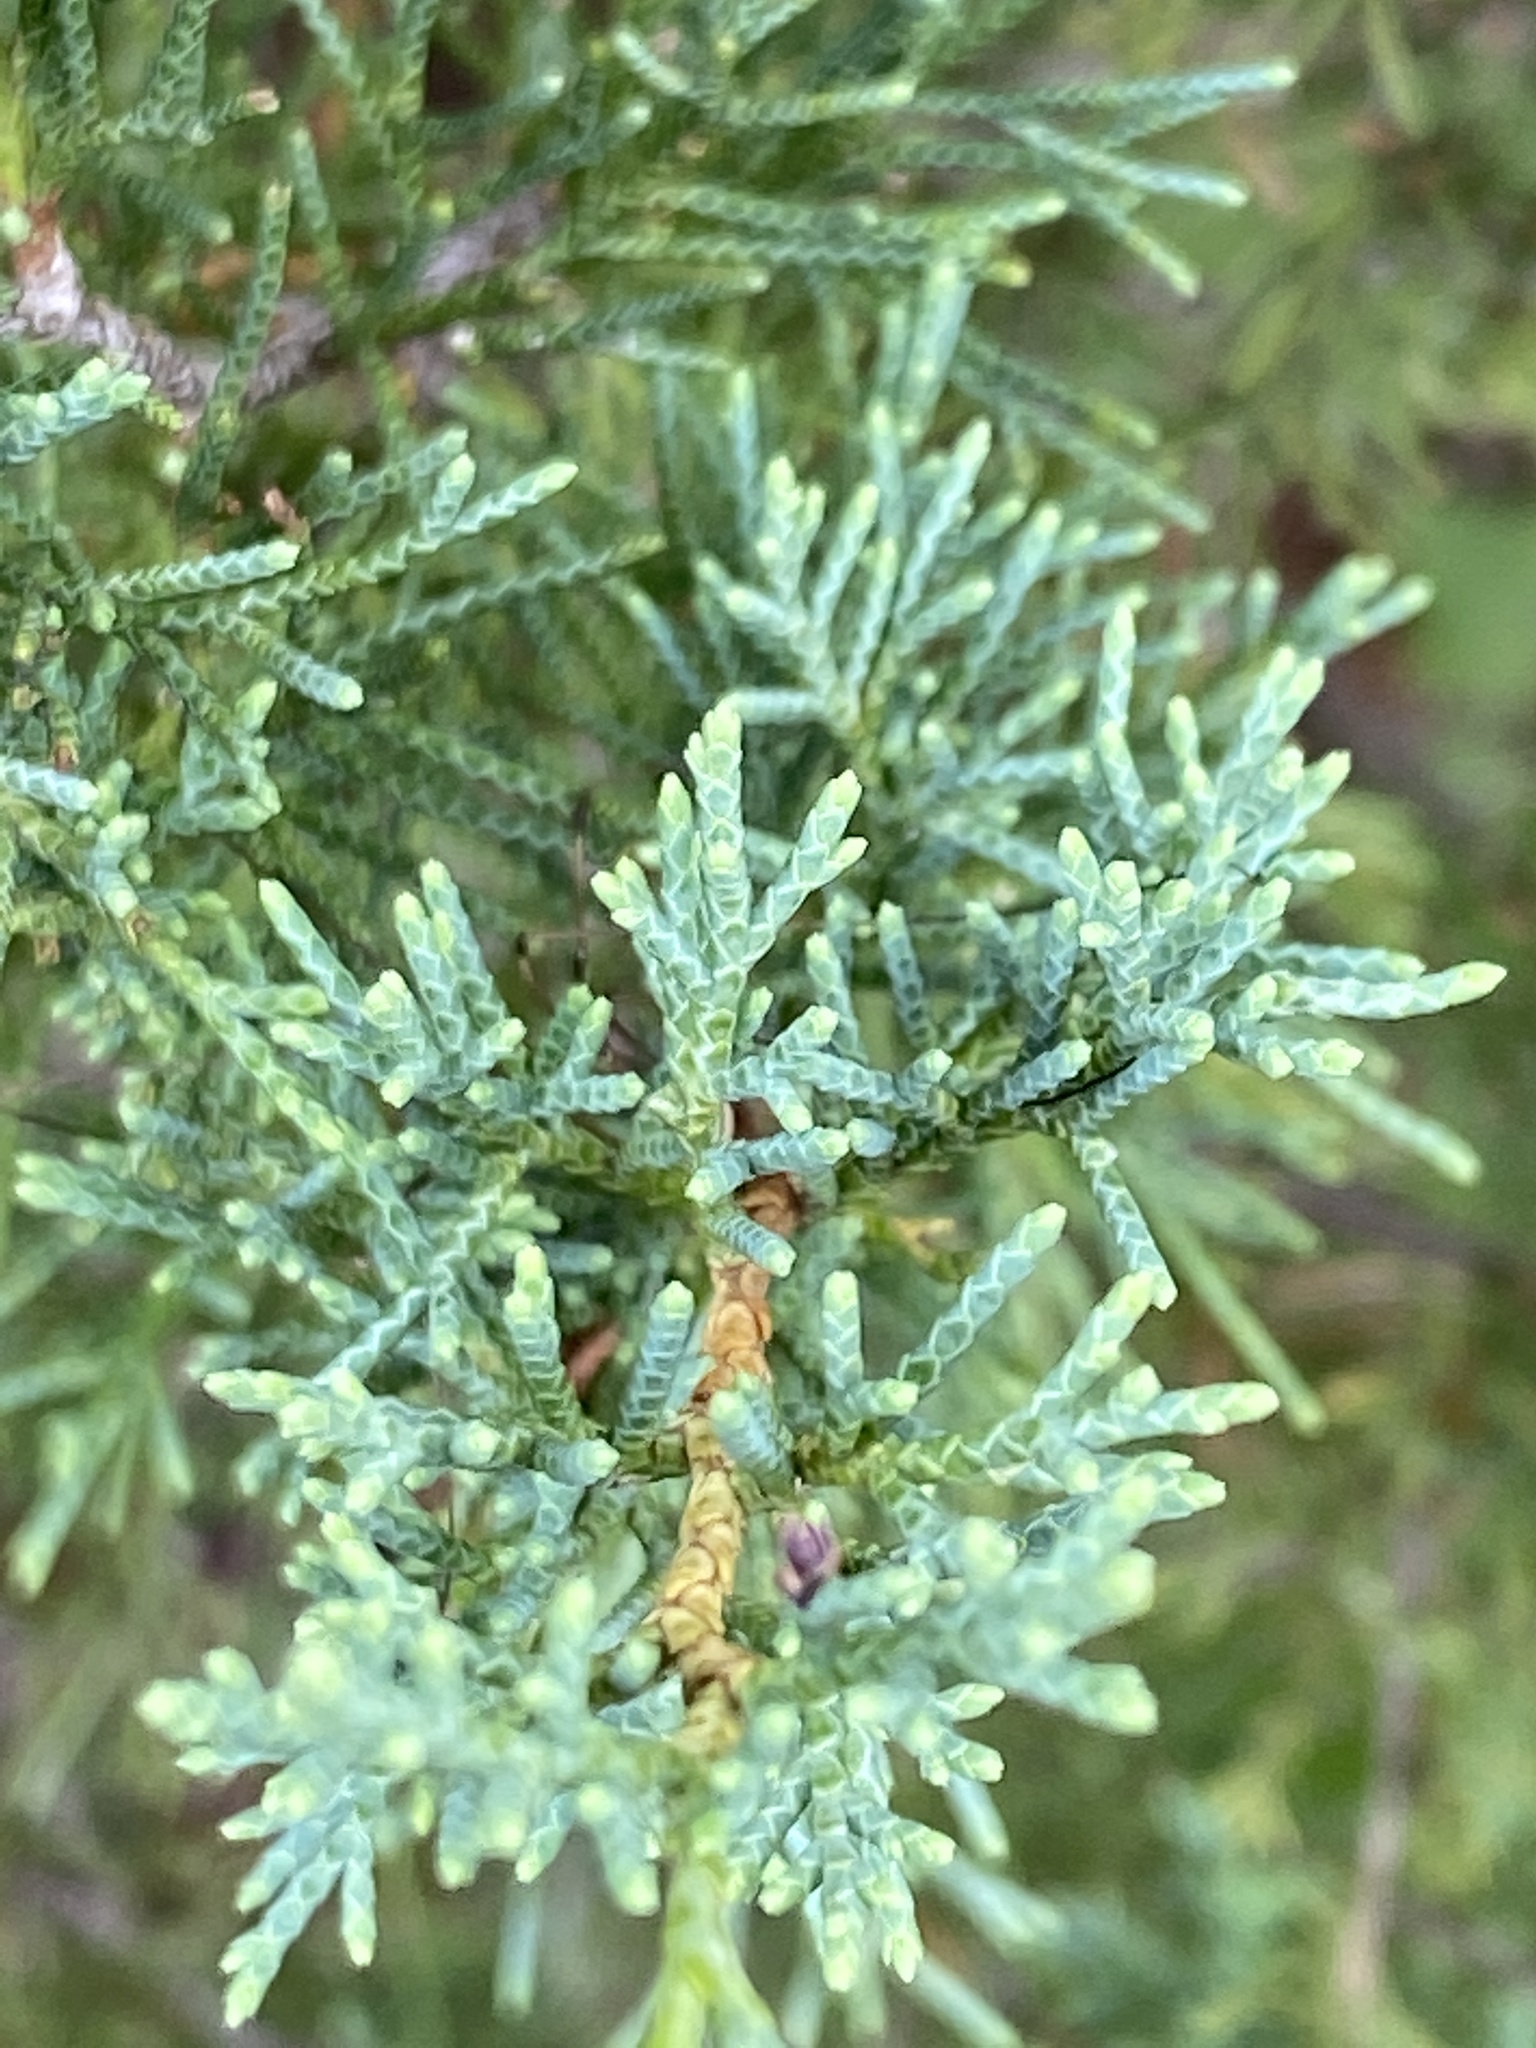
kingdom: Plantae
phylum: Tracheophyta
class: Pinopsida
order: Pinales
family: Cupressaceae
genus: Juniperus
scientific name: Juniperus virginiana
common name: Red juniper
